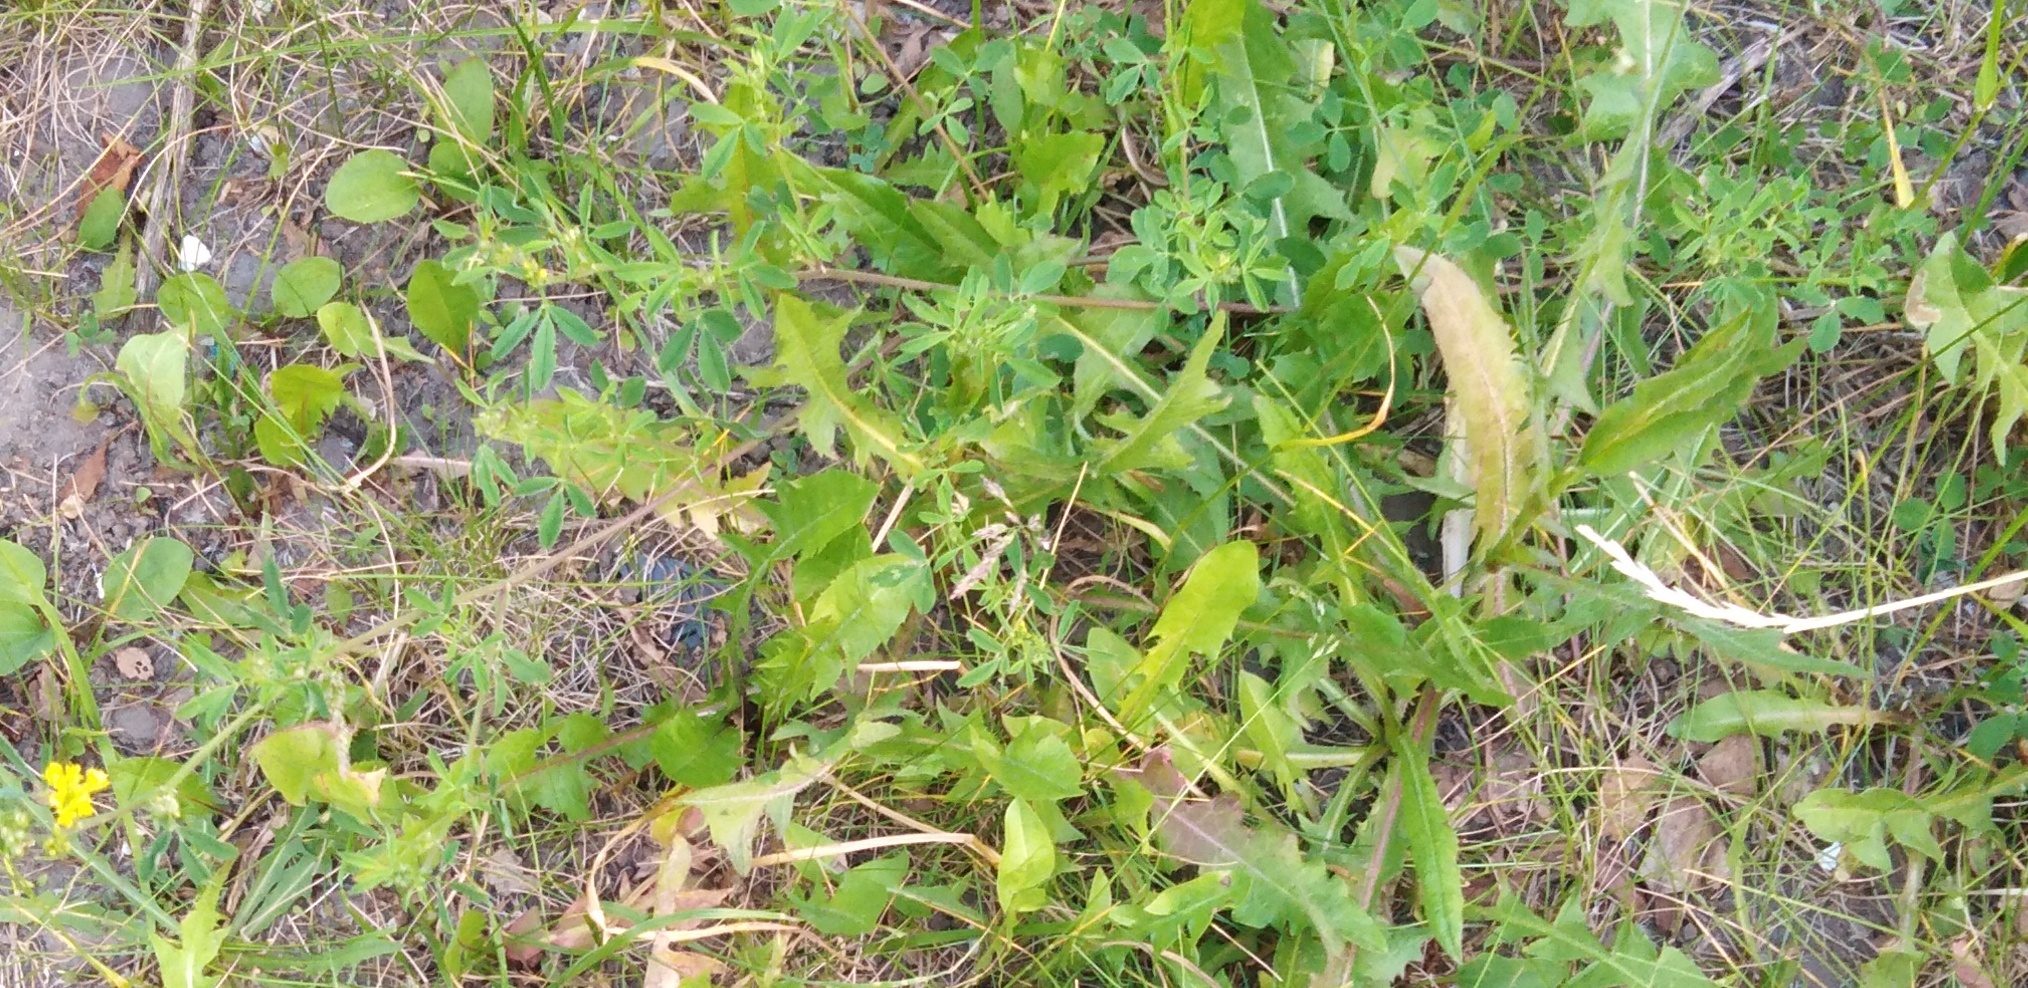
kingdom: Plantae
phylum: Tracheophyta
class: Magnoliopsida
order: Fabales
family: Fabaceae
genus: Medicago
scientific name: Medicago falcata
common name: Sickle medick
